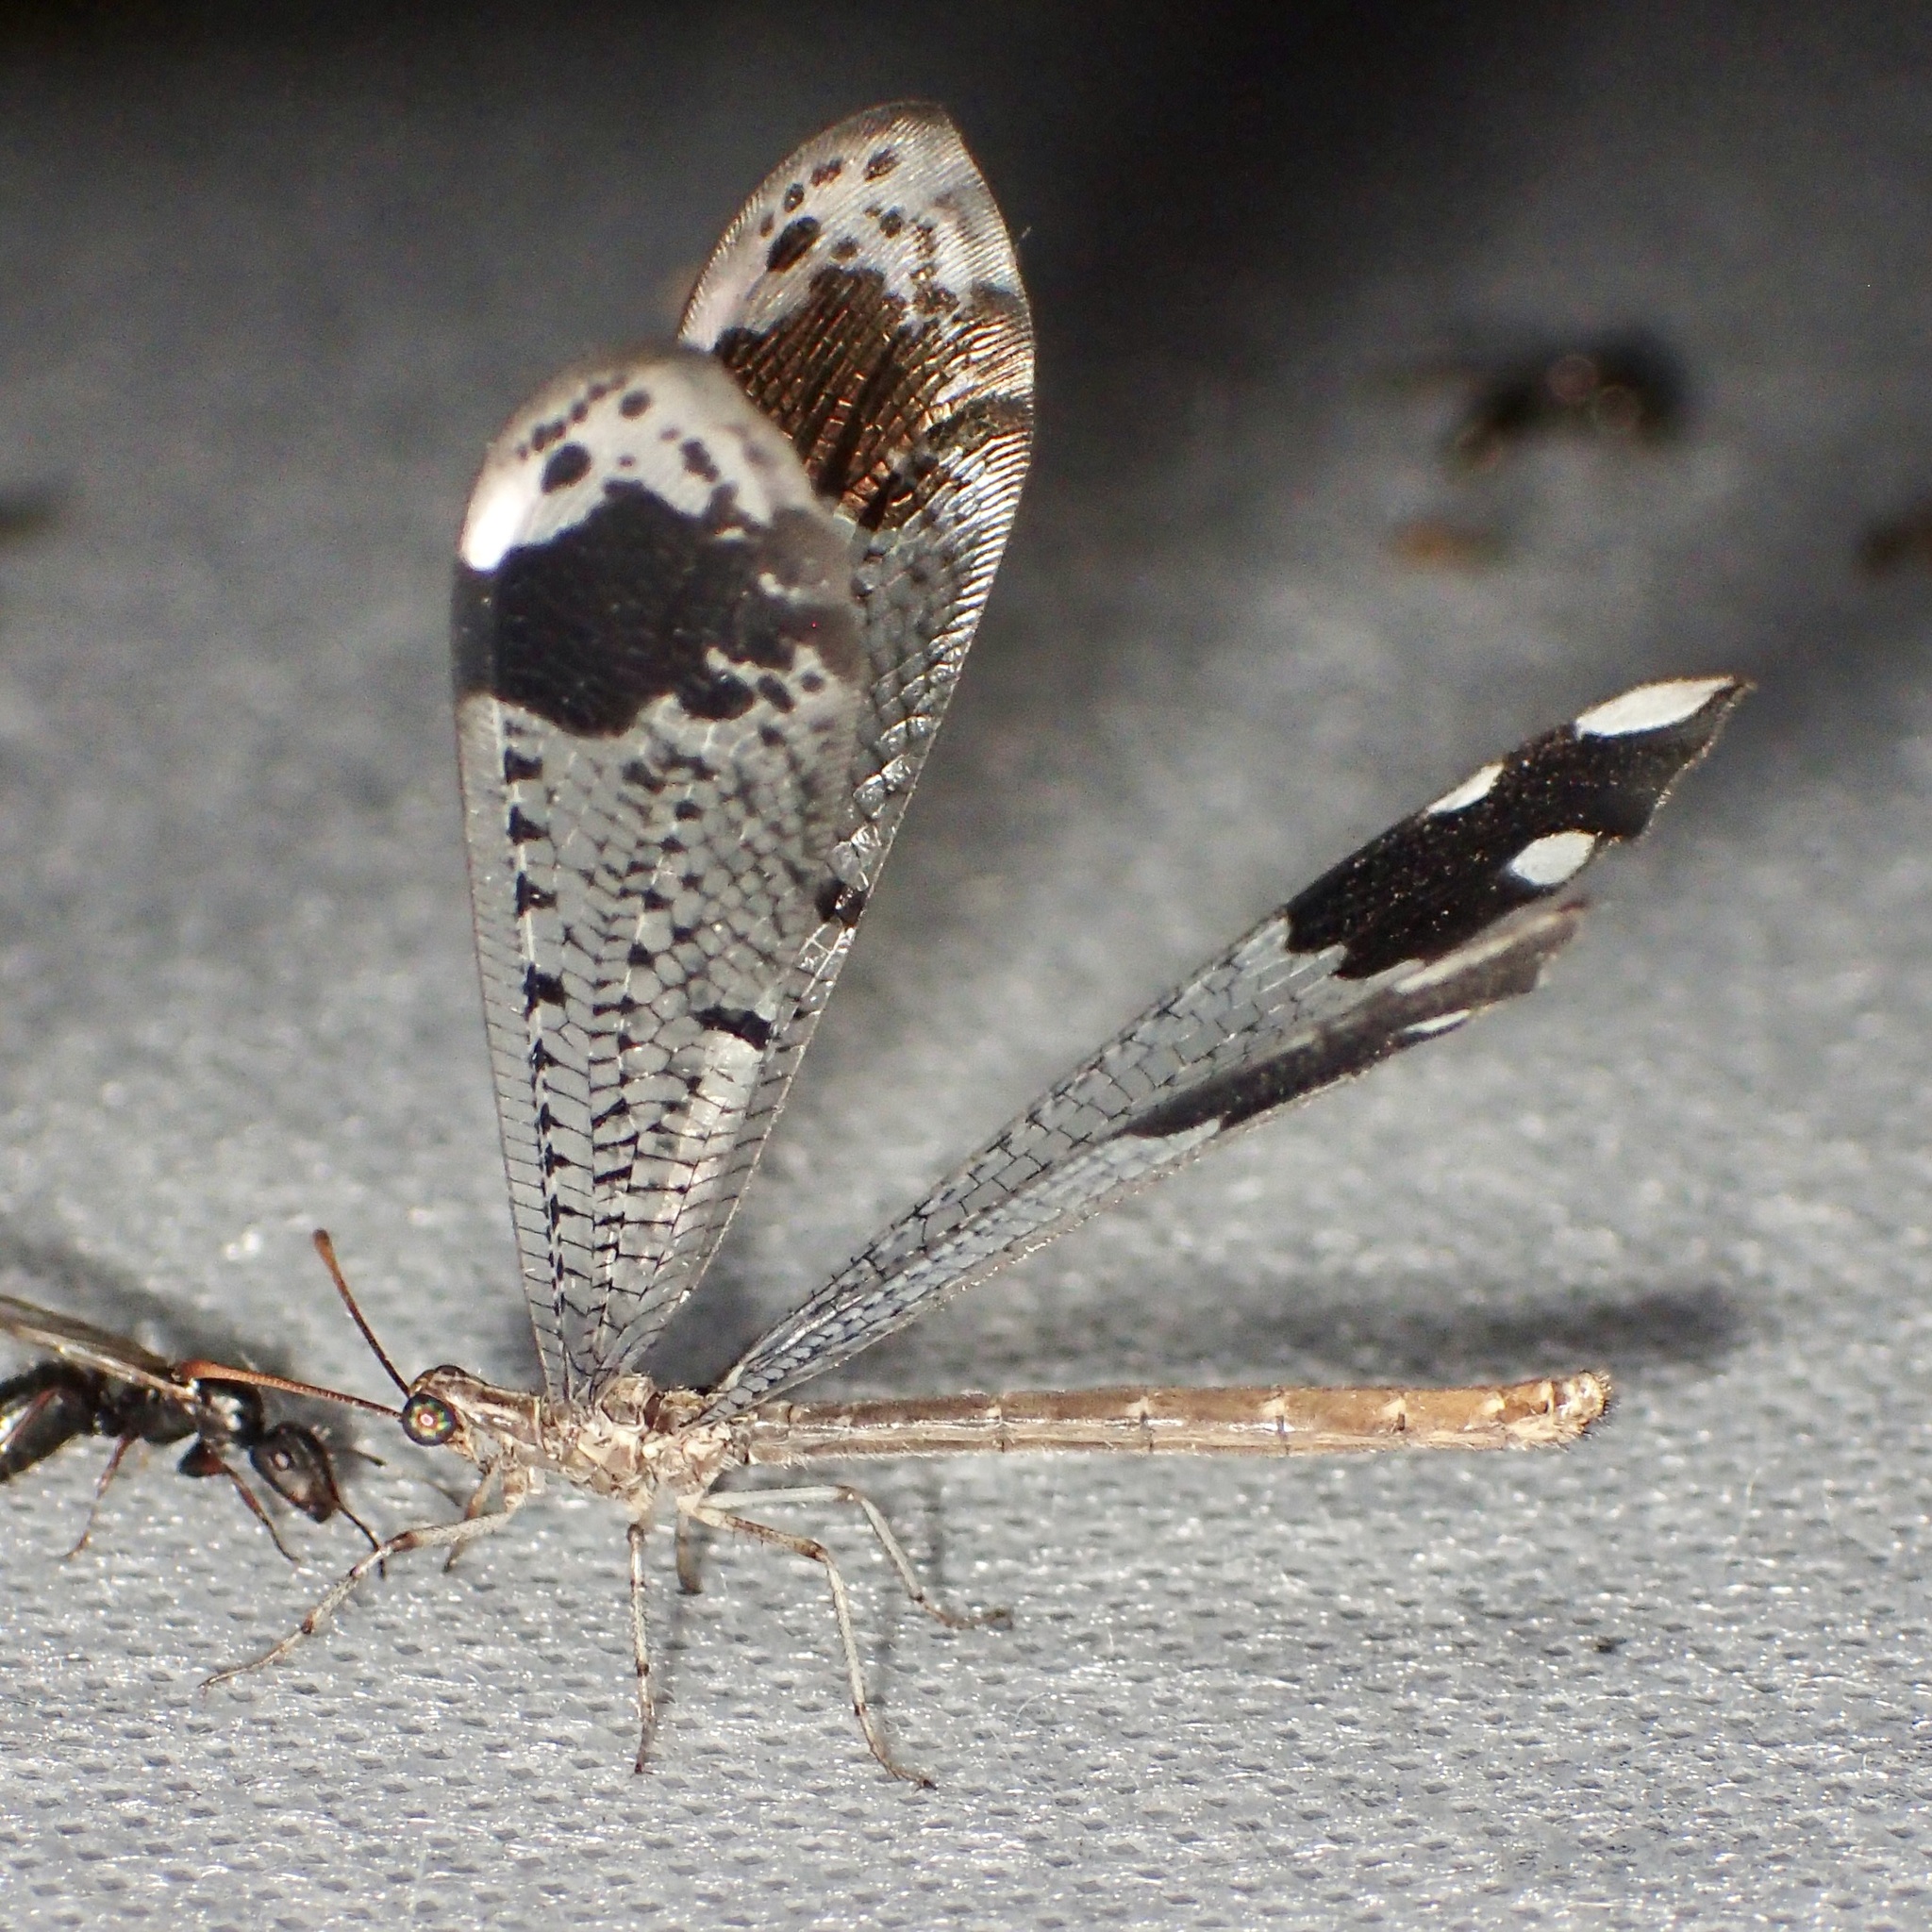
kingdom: Animalia
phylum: Arthropoda
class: Insecta
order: Neuroptera
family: Myrmeleontidae
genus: Glenurus
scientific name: Glenurus luniger
